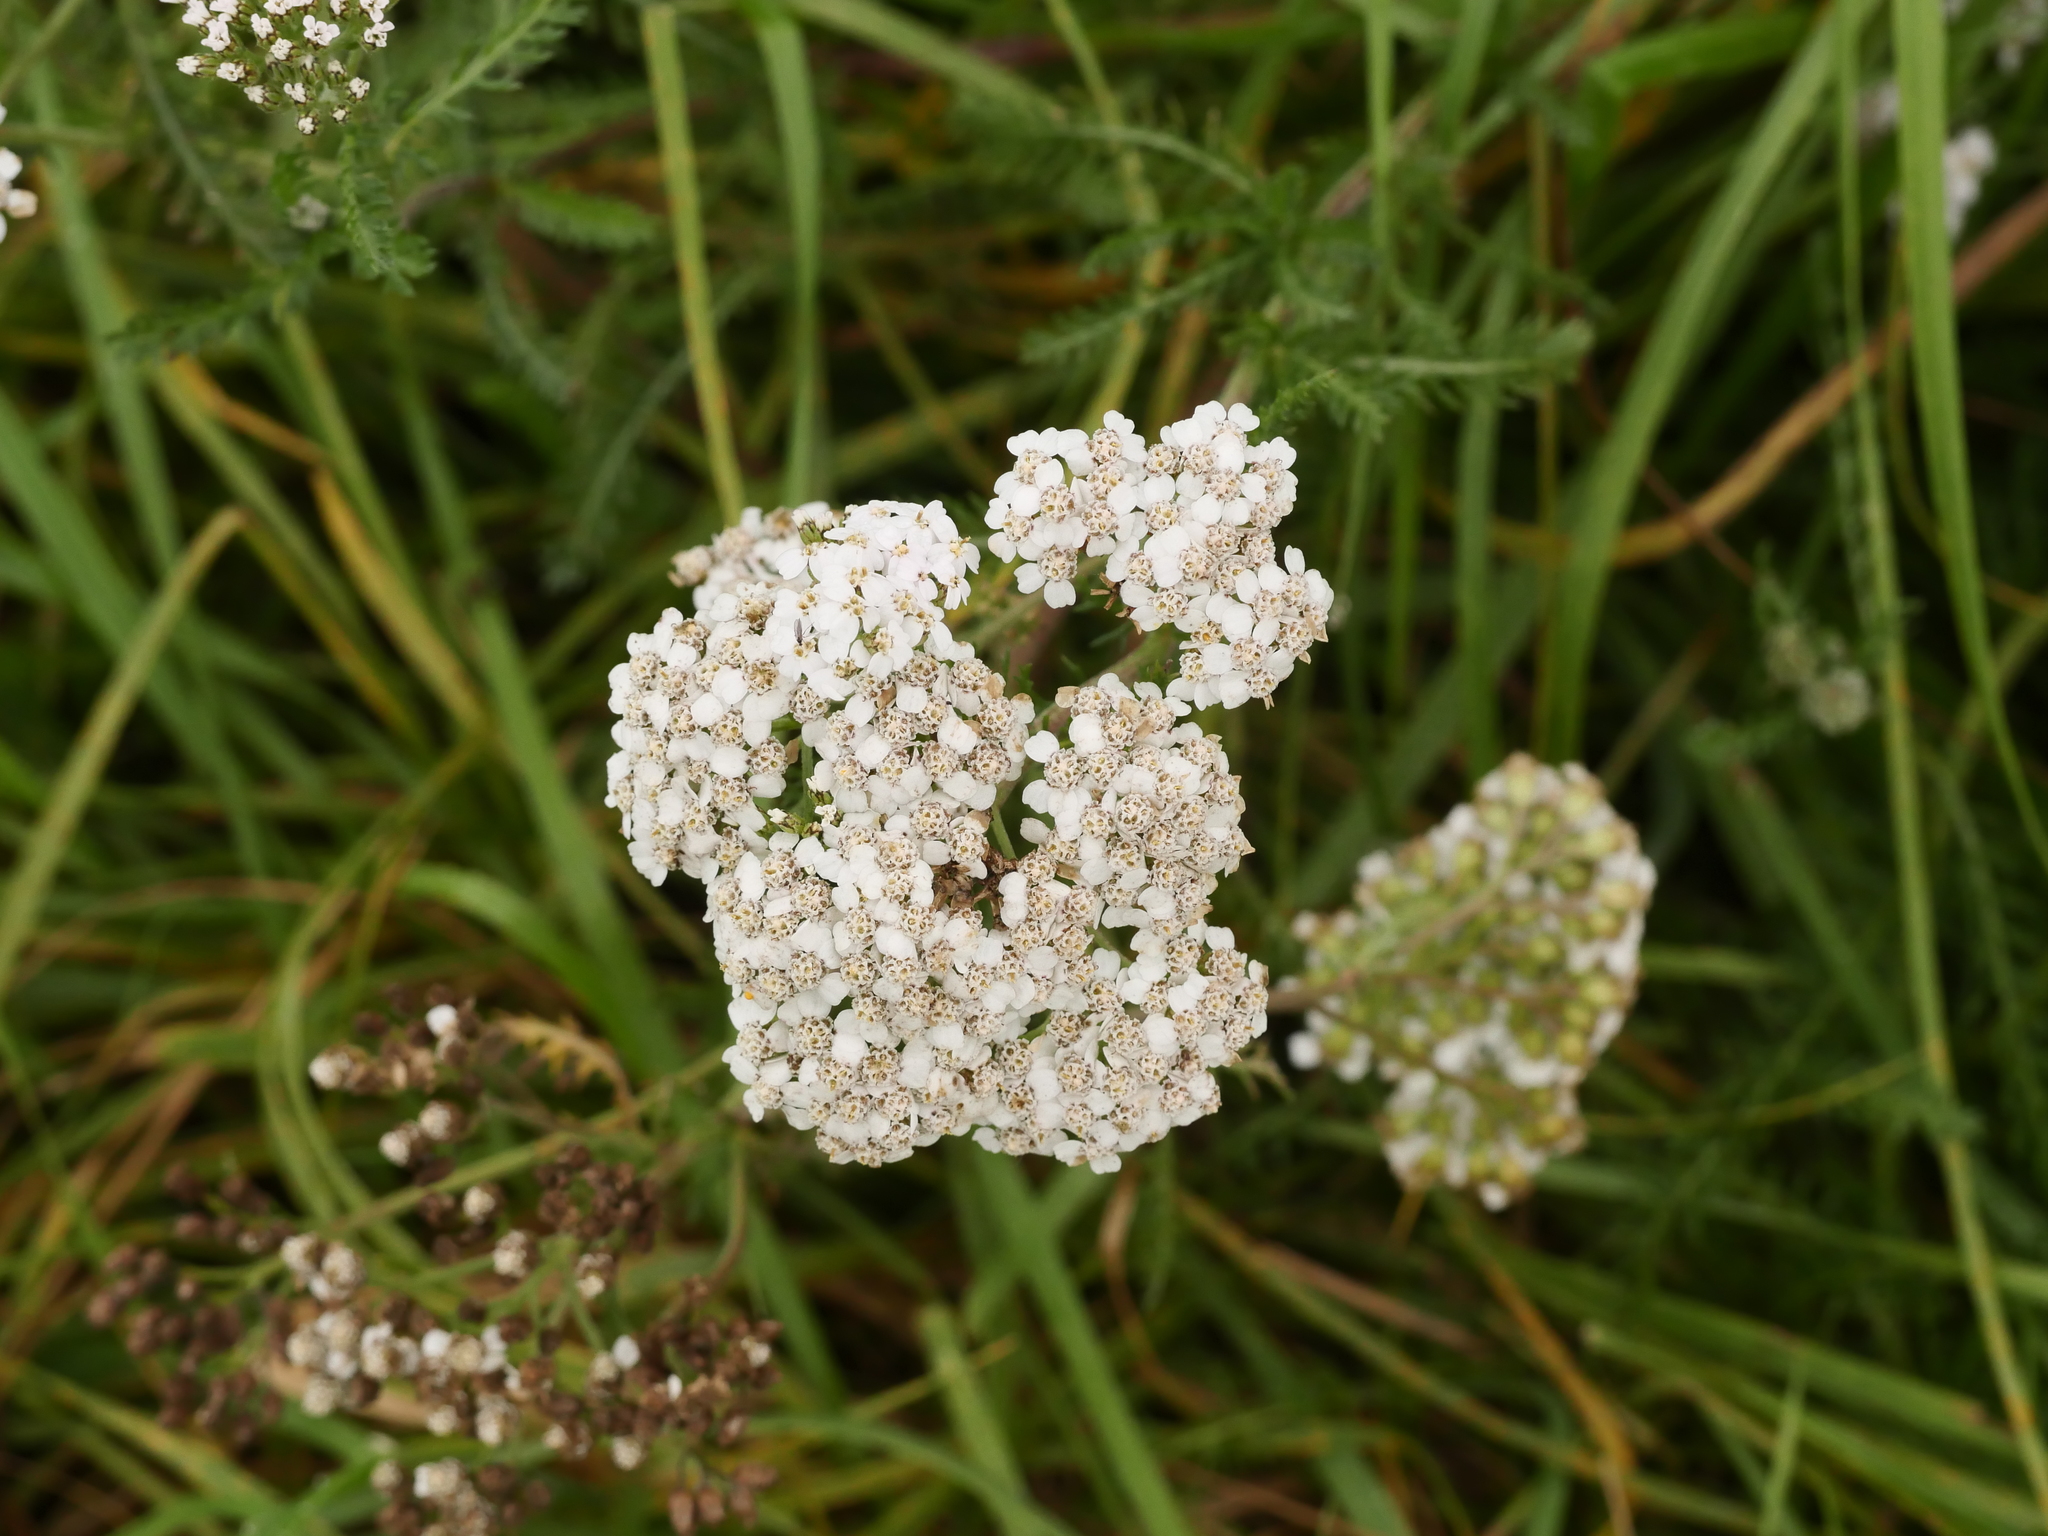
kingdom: Plantae
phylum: Tracheophyta
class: Magnoliopsida
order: Asterales
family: Asteraceae
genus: Achillea
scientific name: Achillea millefolium
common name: Yarrow
